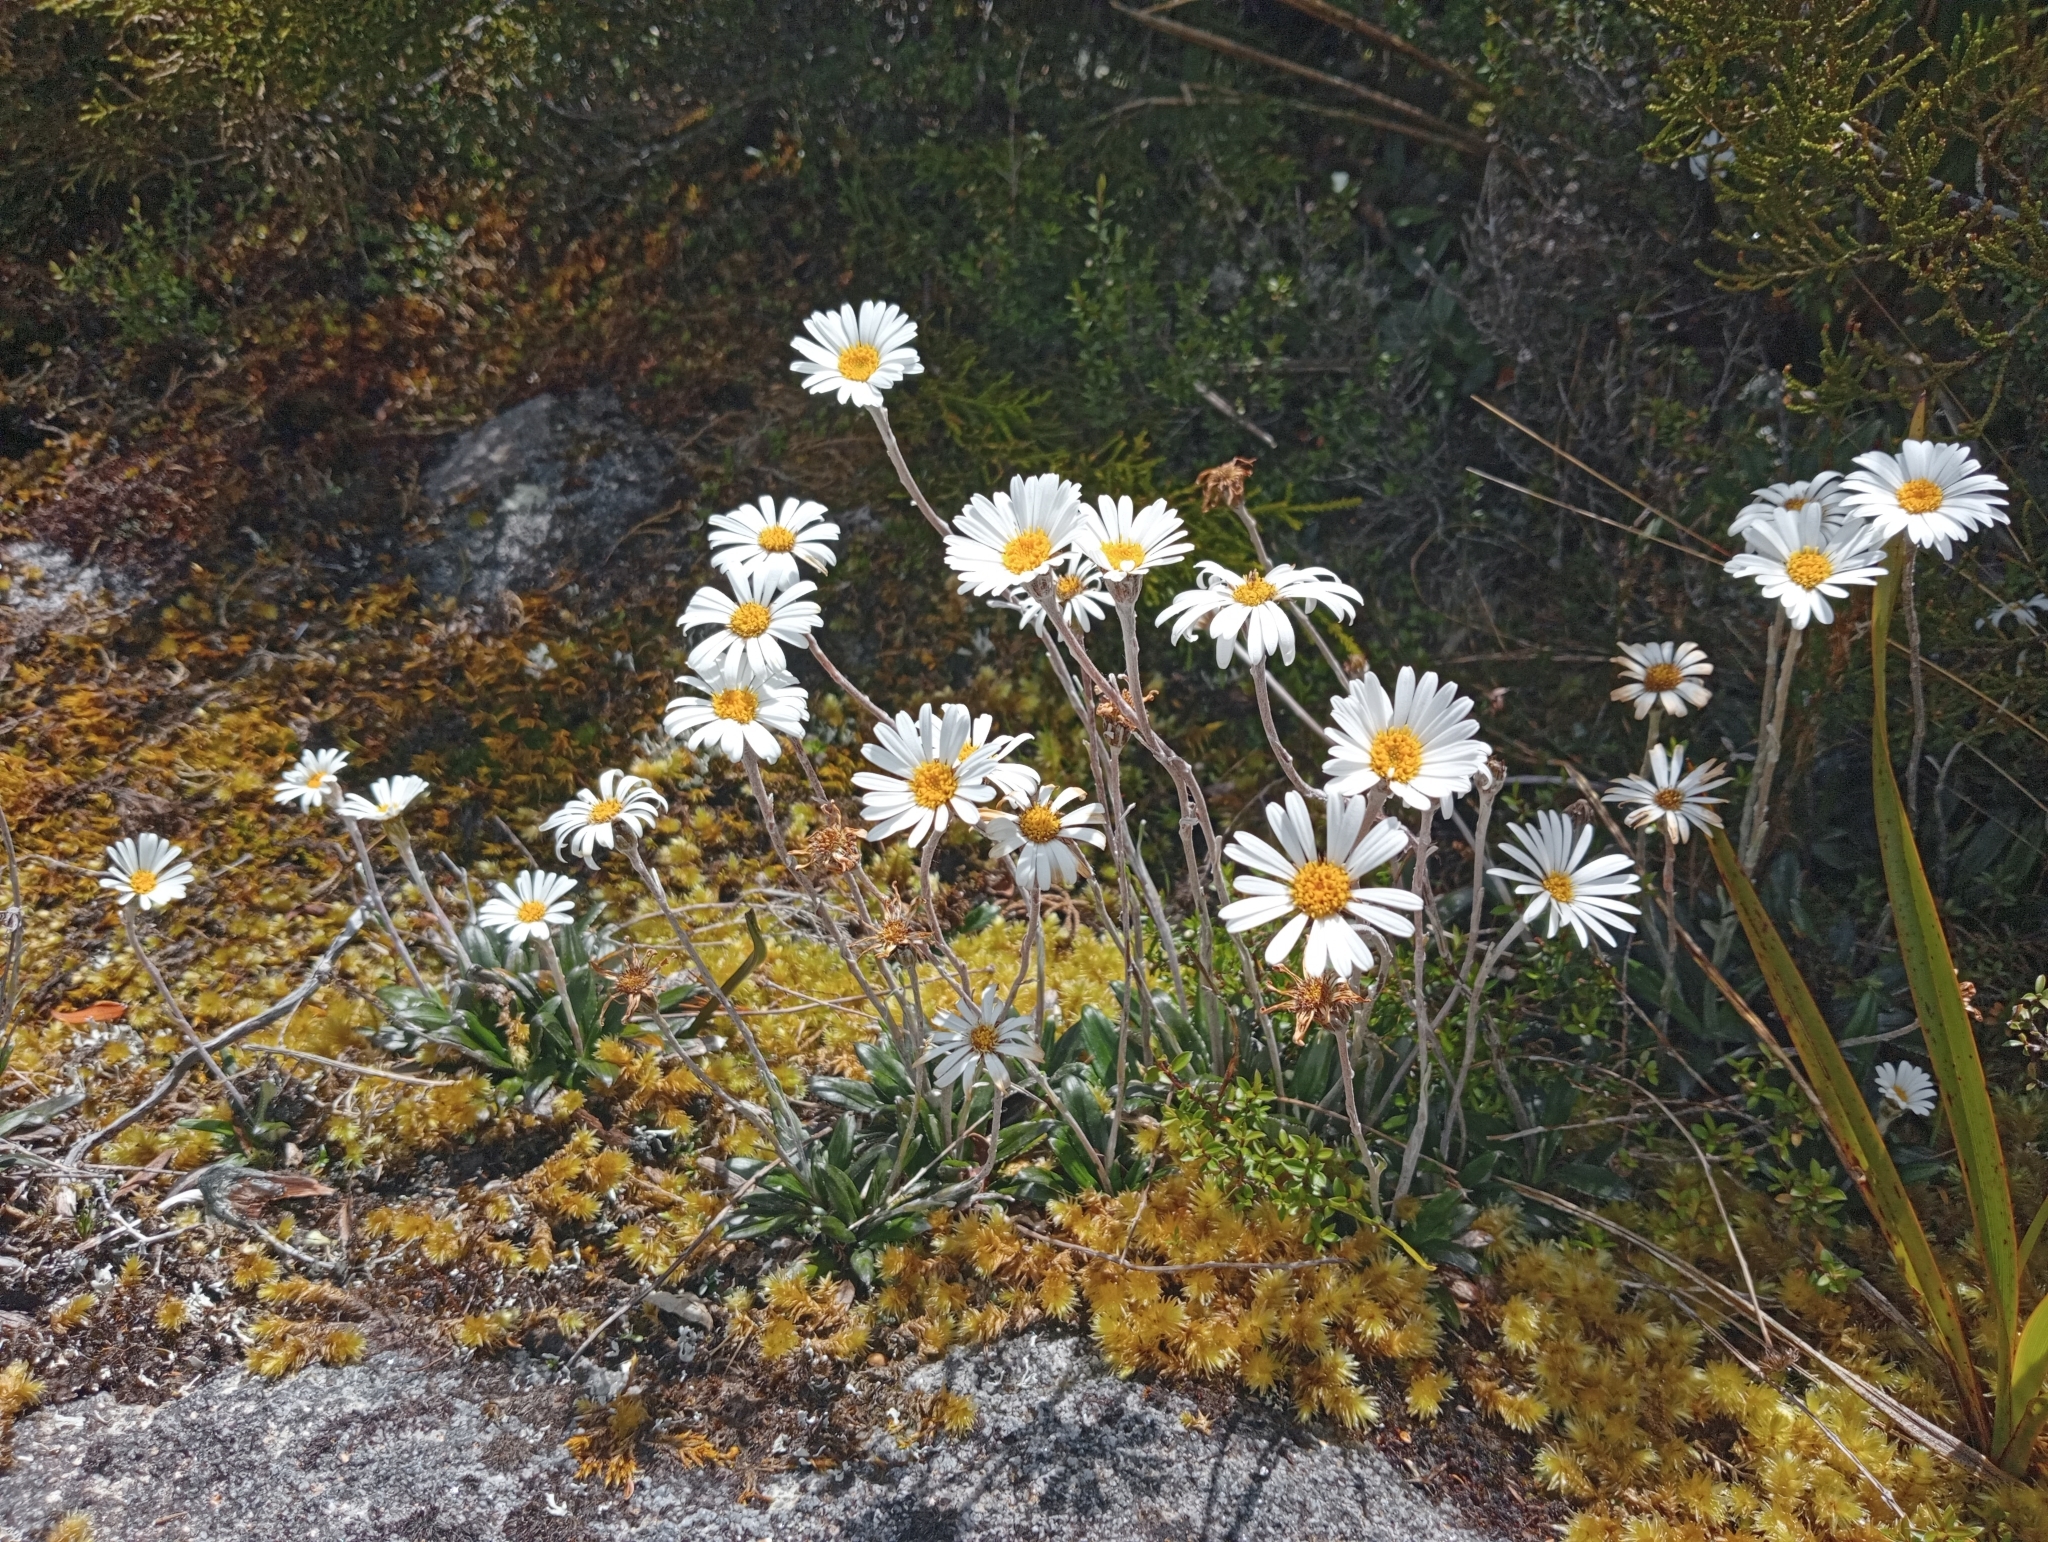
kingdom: Plantae
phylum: Tracheophyta
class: Magnoliopsida
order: Asterales
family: Asteraceae
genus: Celmisia
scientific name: Celmisia dubia
